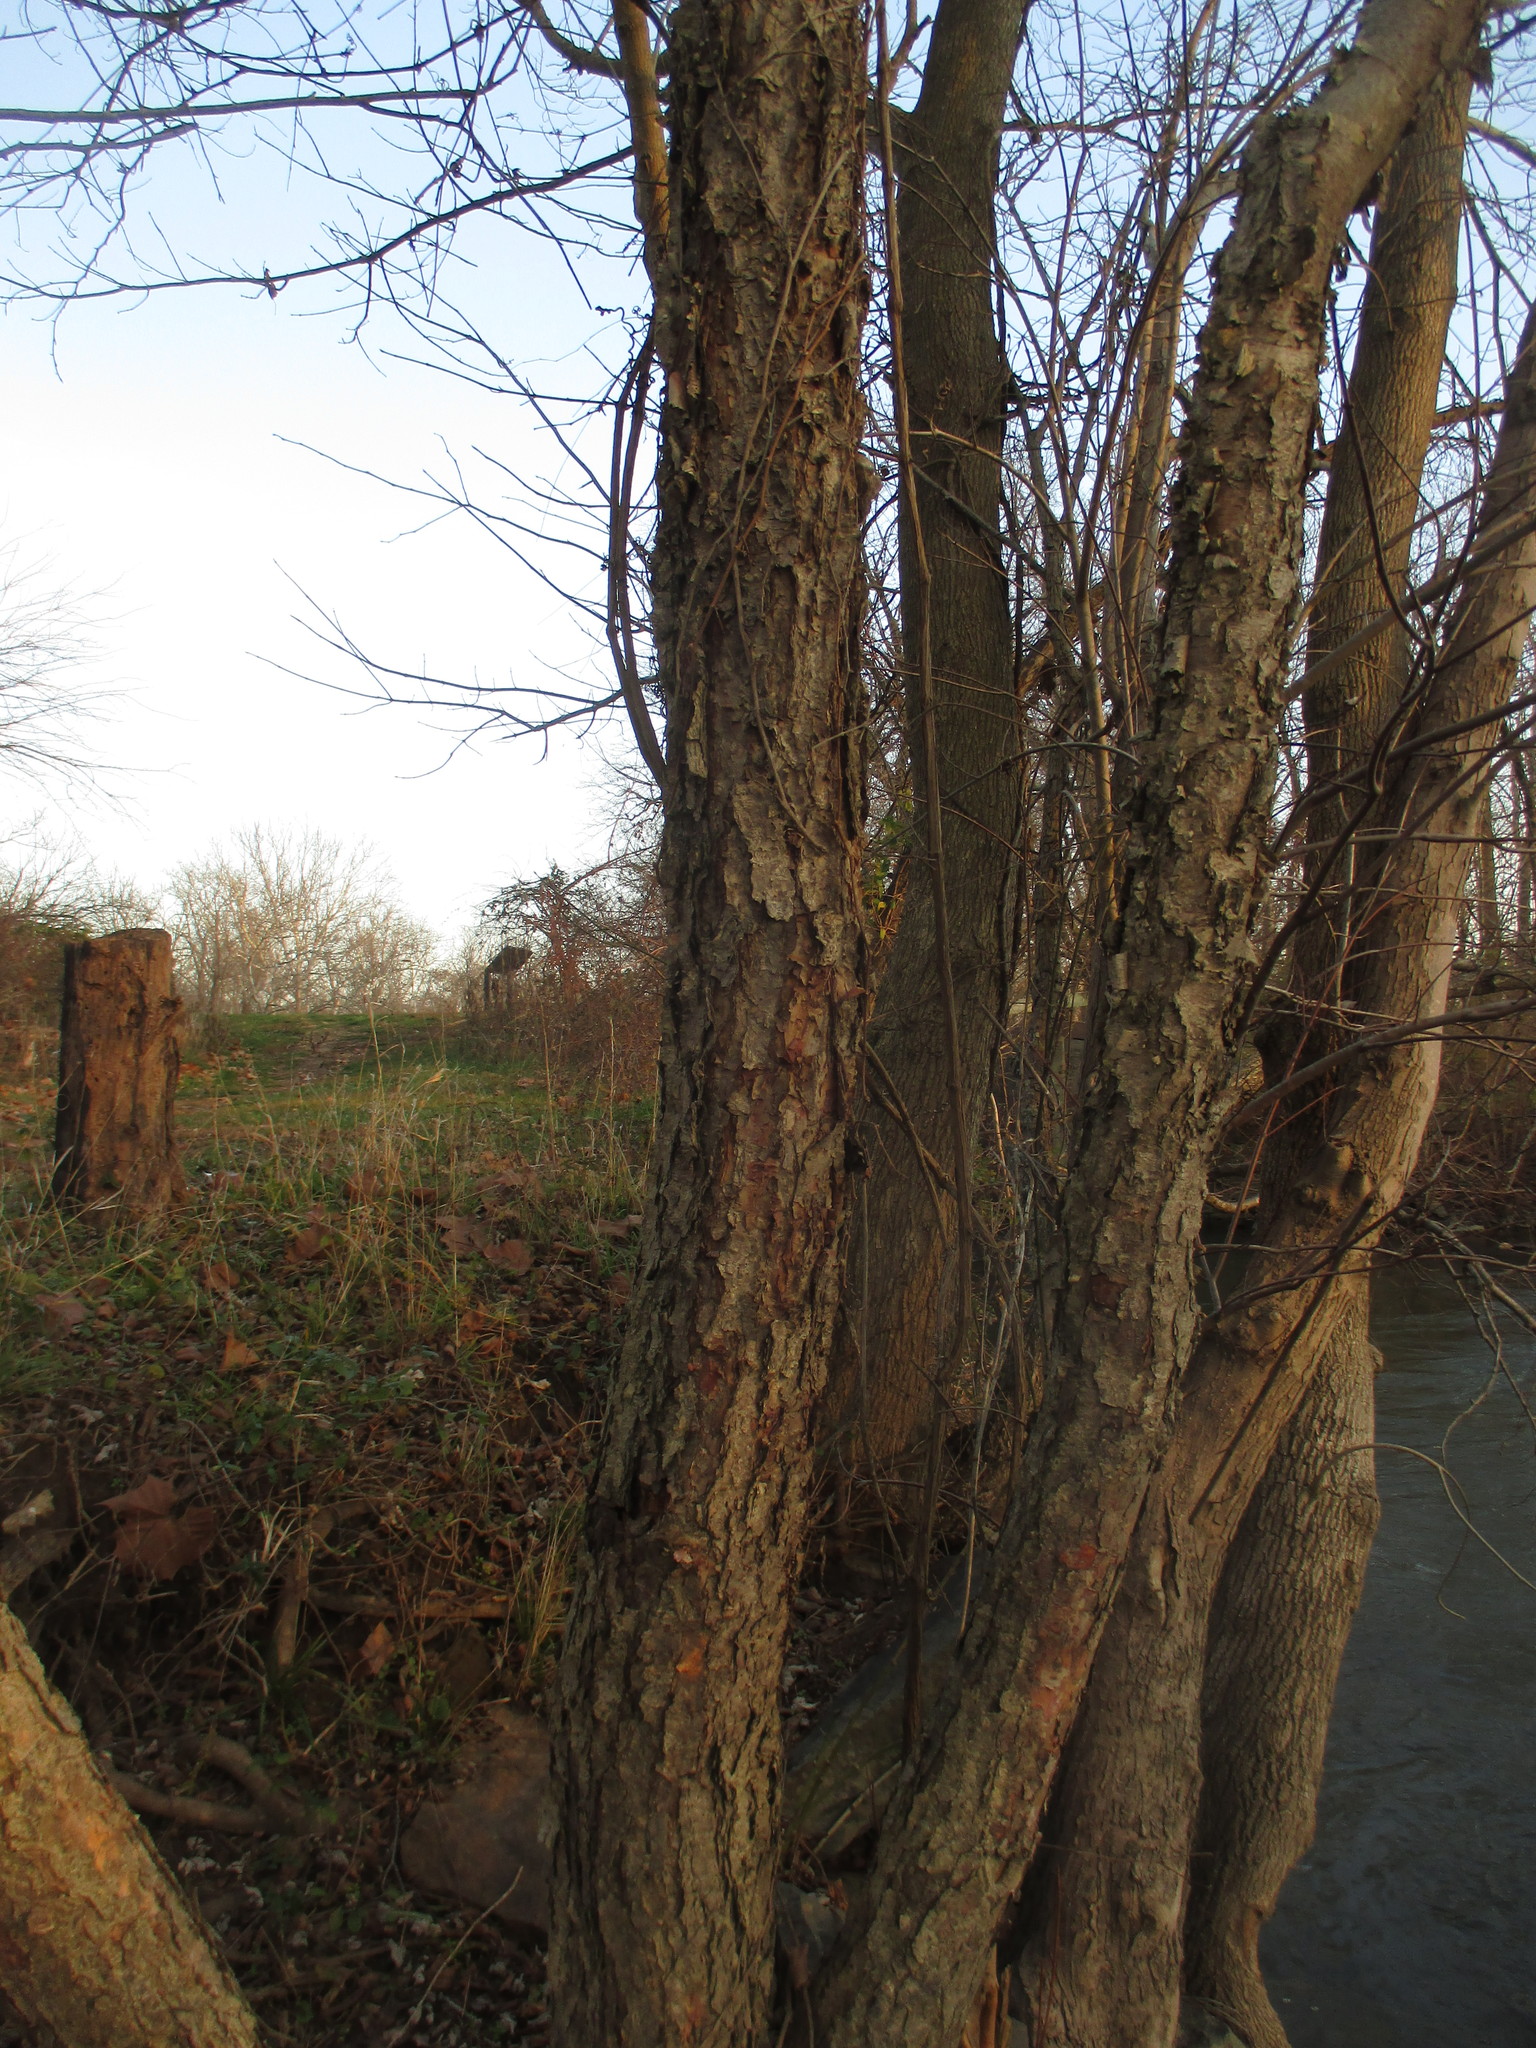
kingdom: Plantae
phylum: Tracheophyta
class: Magnoliopsida
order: Fagales
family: Betulaceae
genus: Betula
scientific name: Betula nigra
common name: Black birch
